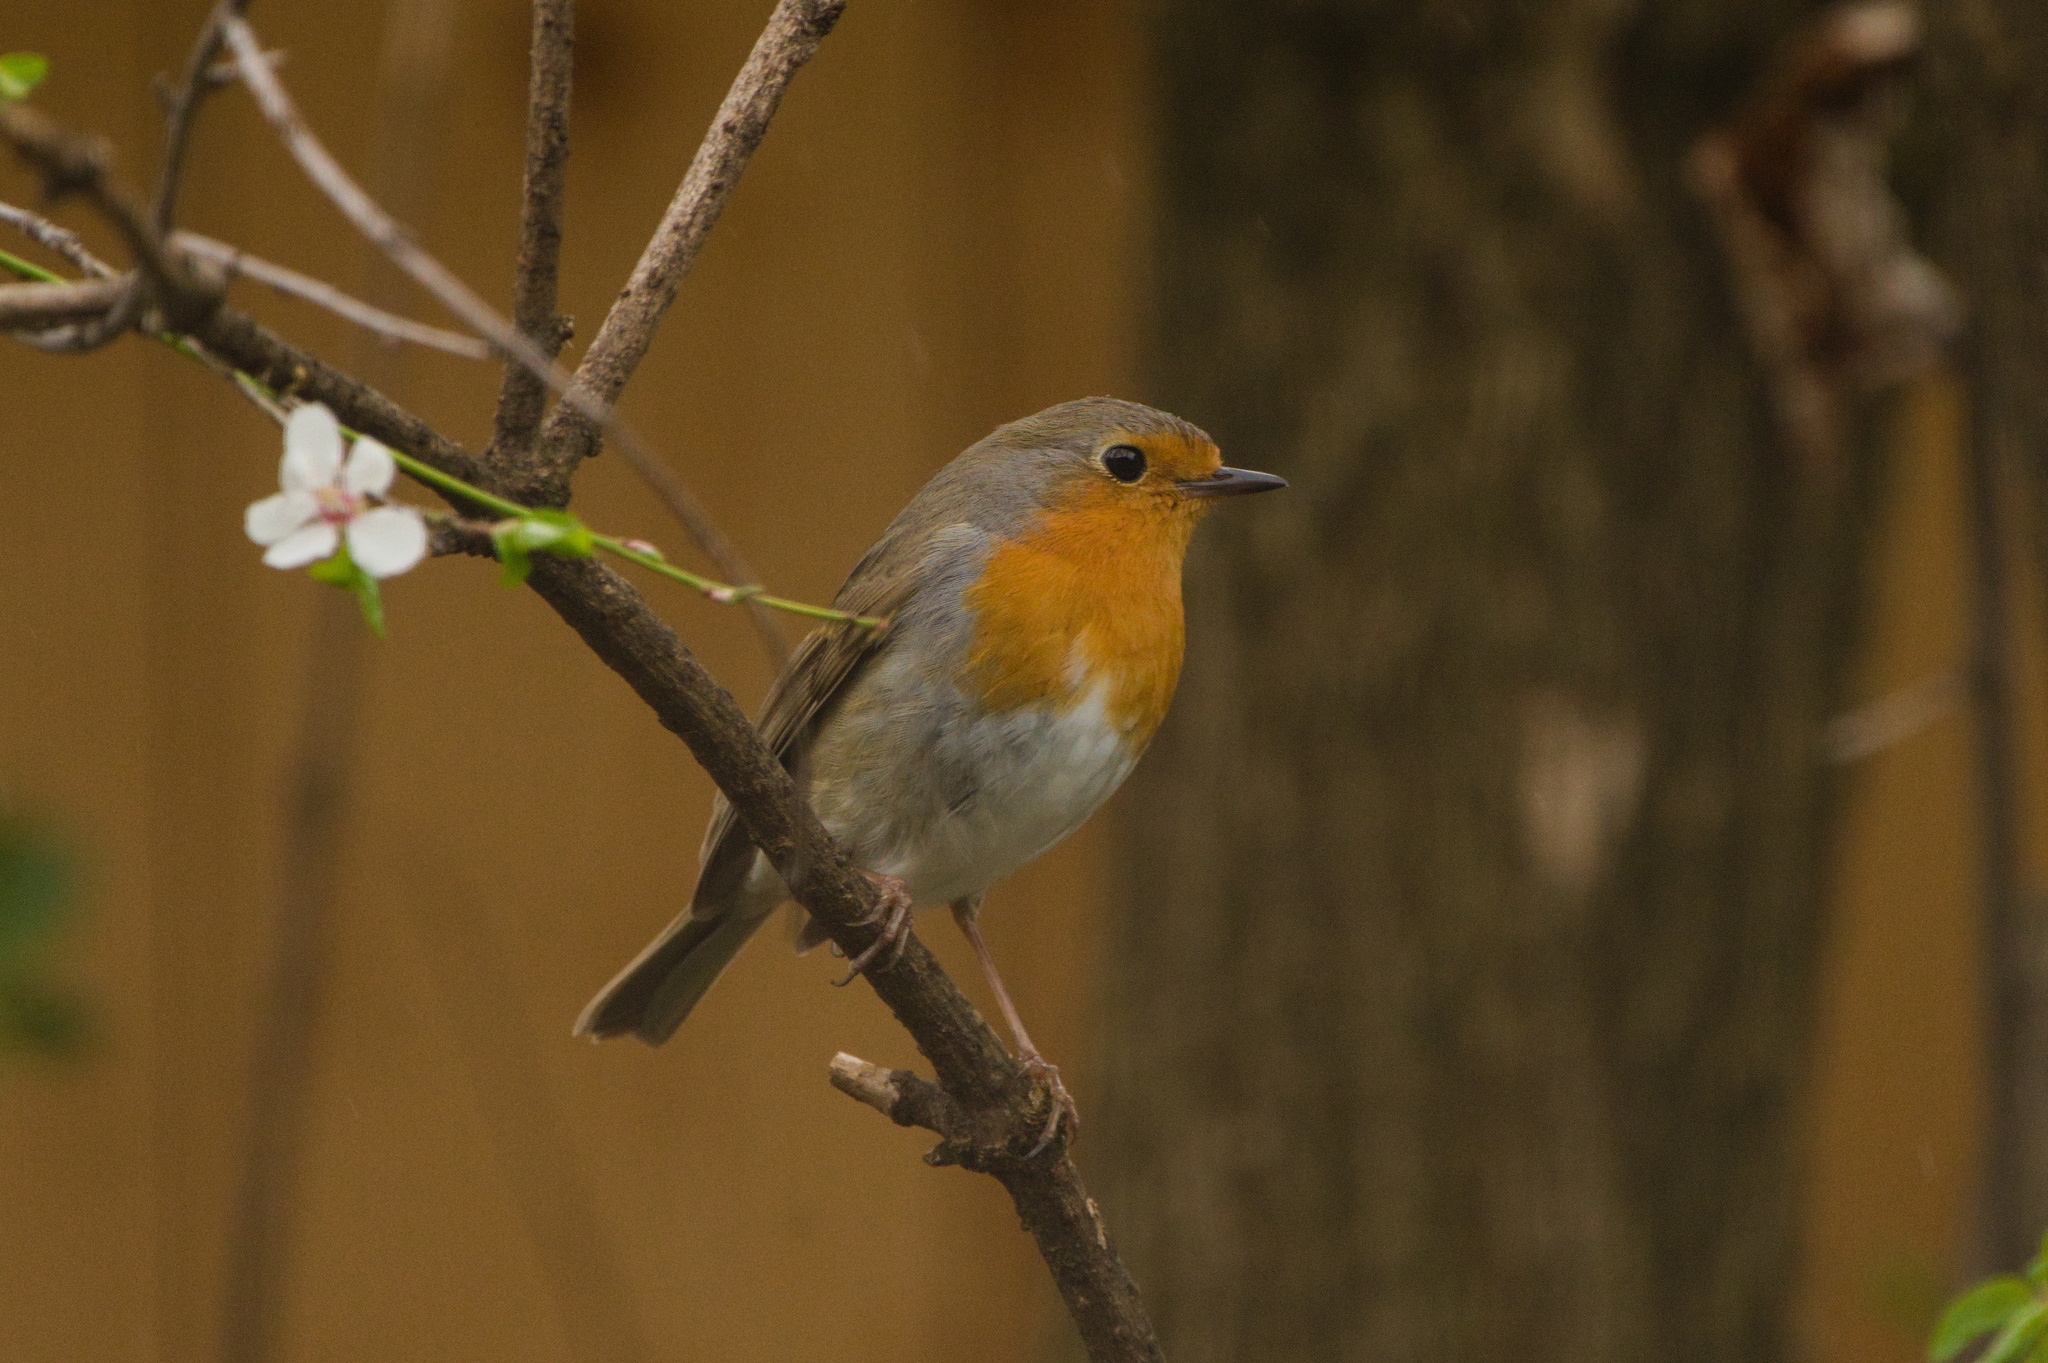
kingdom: Animalia
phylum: Chordata
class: Aves
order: Passeriformes
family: Muscicapidae
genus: Erithacus
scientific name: Erithacus rubecula
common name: European robin
